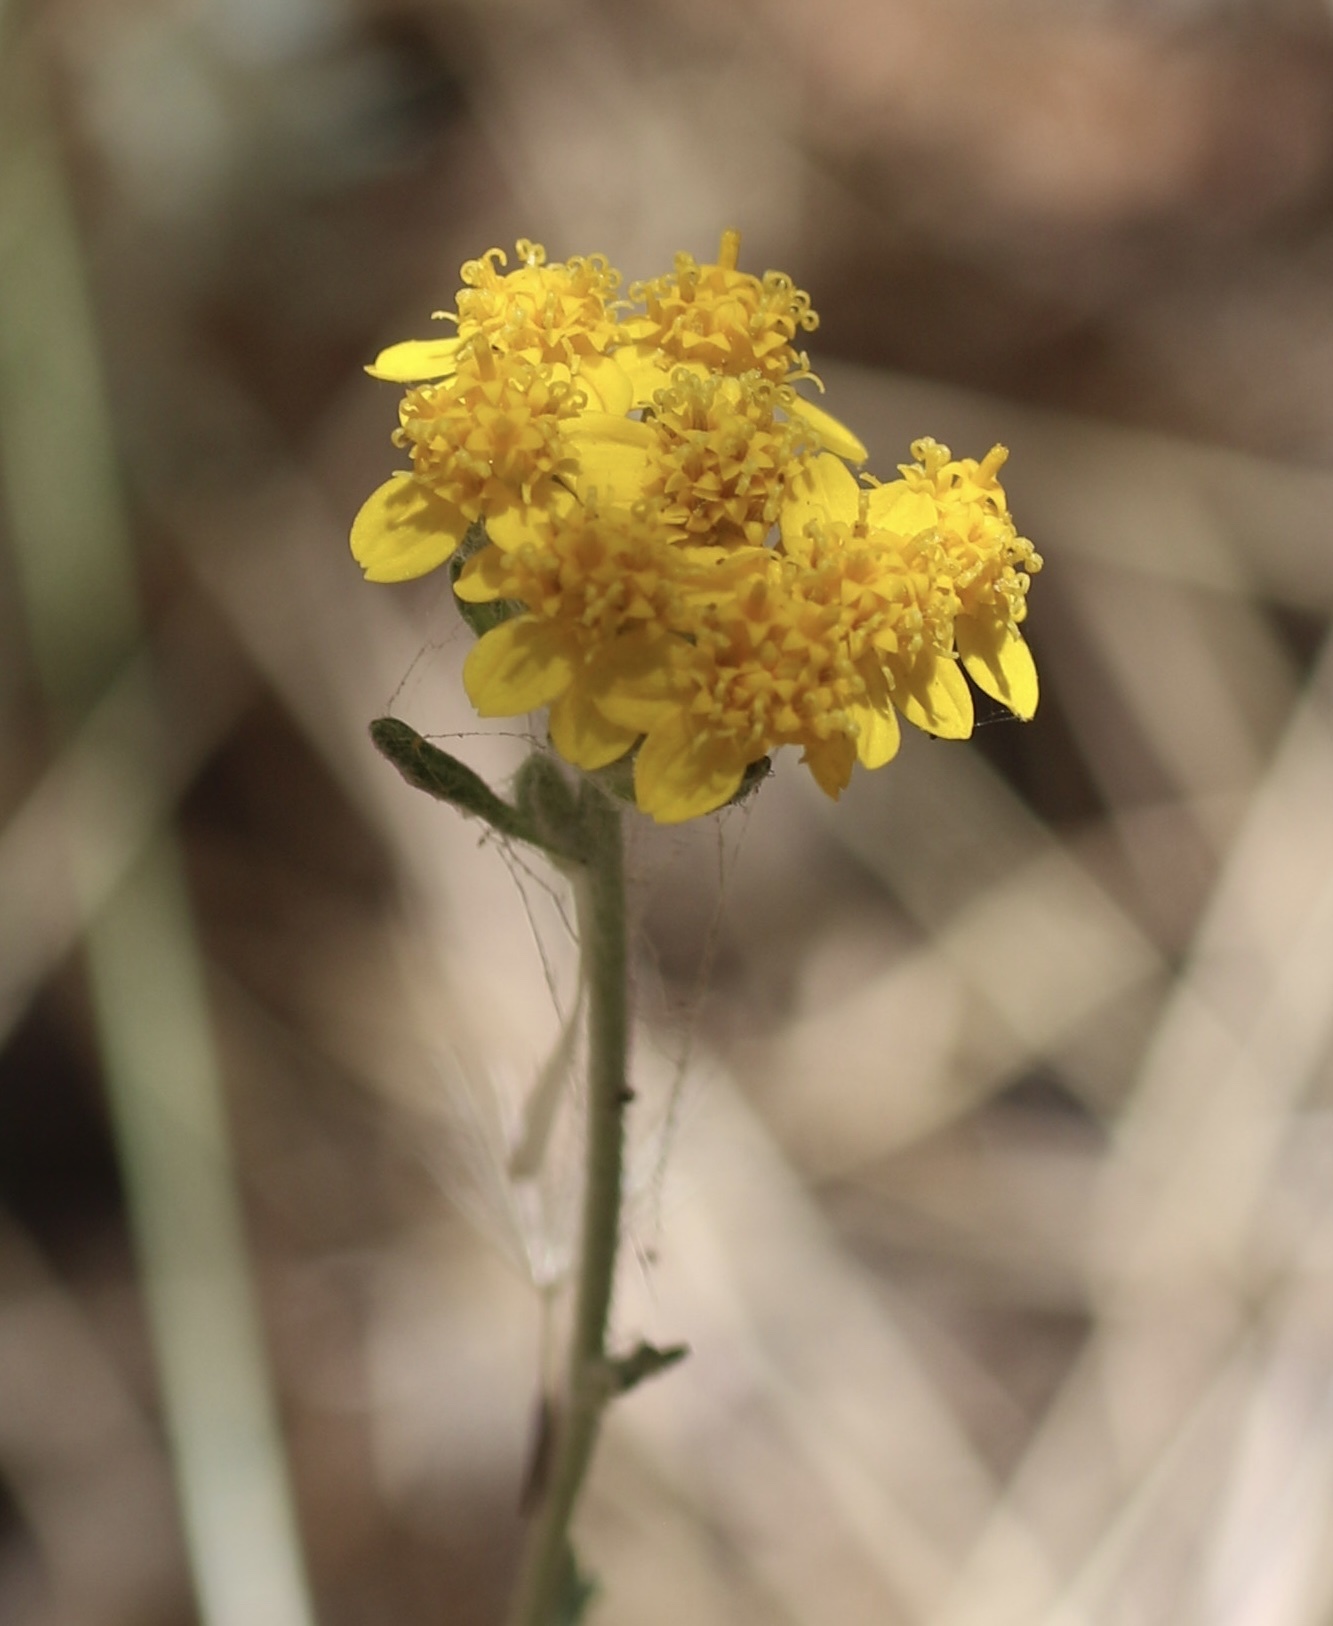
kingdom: Plantae
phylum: Tracheophyta
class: Magnoliopsida
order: Asterales
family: Asteraceae
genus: Eriophyllum
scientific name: Eriophyllum confertiflorum
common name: Golden-yarrow
